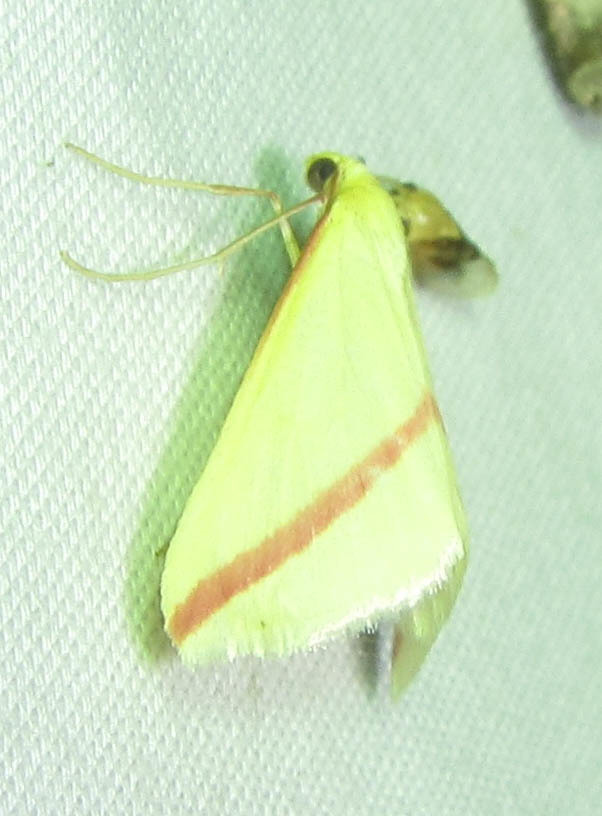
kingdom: Animalia
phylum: Arthropoda
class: Insecta
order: Lepidoptera
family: Geometridae
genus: Rhodometra
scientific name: Rhodometra sacraria
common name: Vestal
